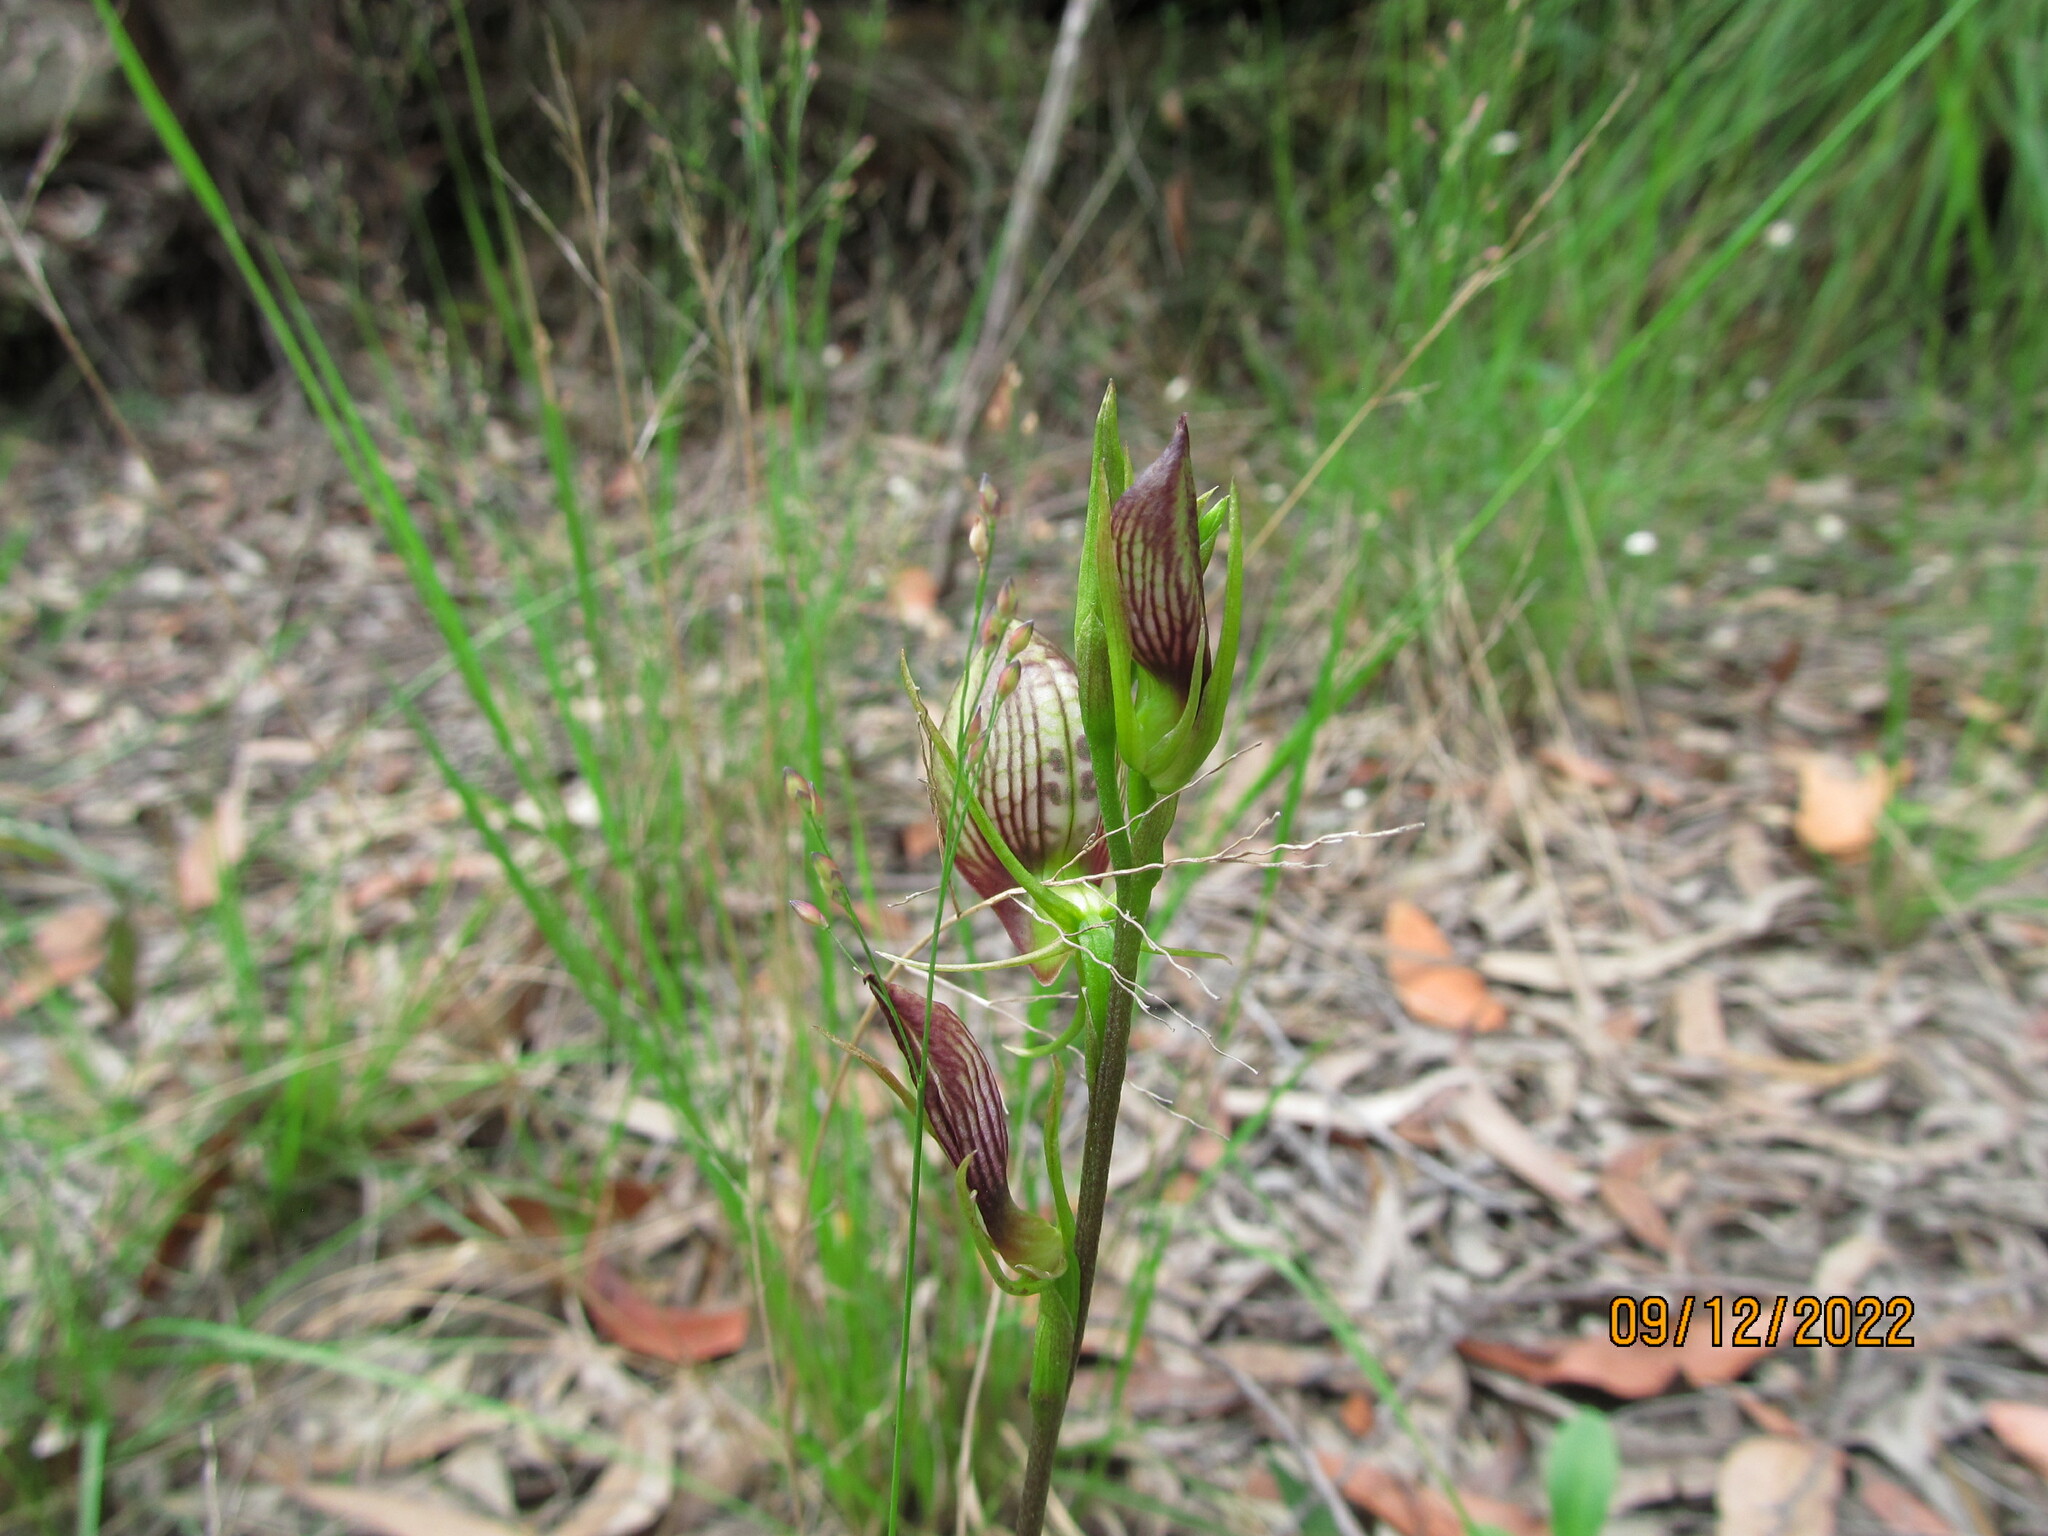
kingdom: Plantae
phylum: Tracheophyta
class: Liliopsida
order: Asparagales
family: Orchidaceae
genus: Cryptostylis
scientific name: Cryptostylis erecta
